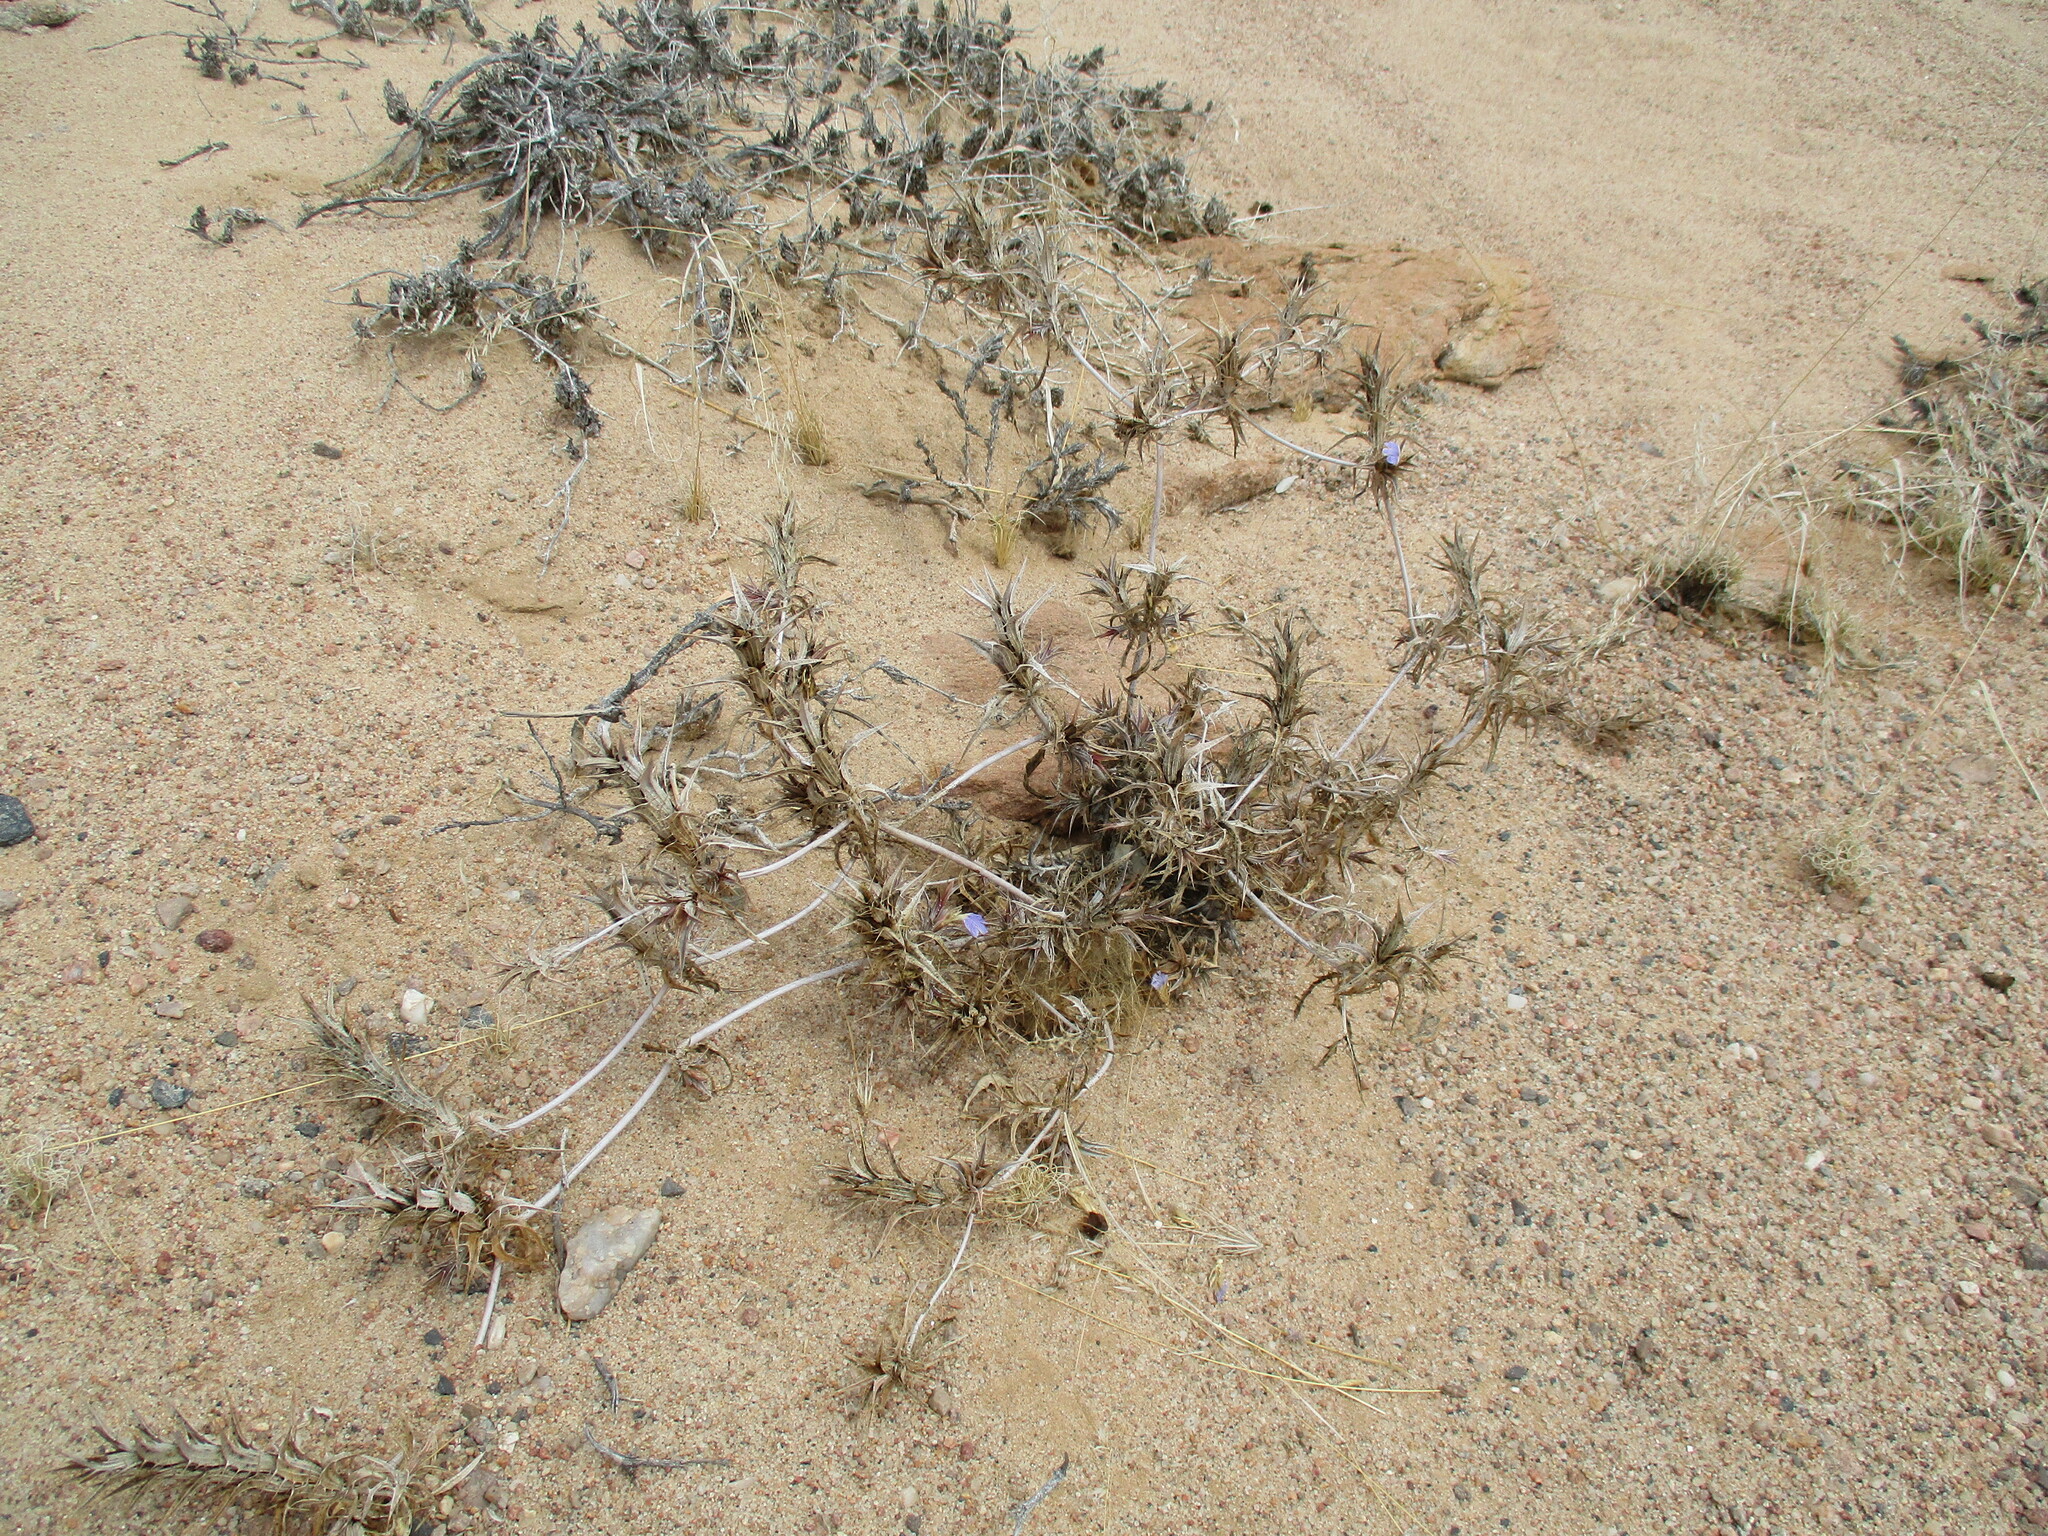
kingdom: Plantae
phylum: Tracheophyta
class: Magnoliopsida
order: Lamiales
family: Acanthaceae
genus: Blepharis
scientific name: Blepharis obmitrata
